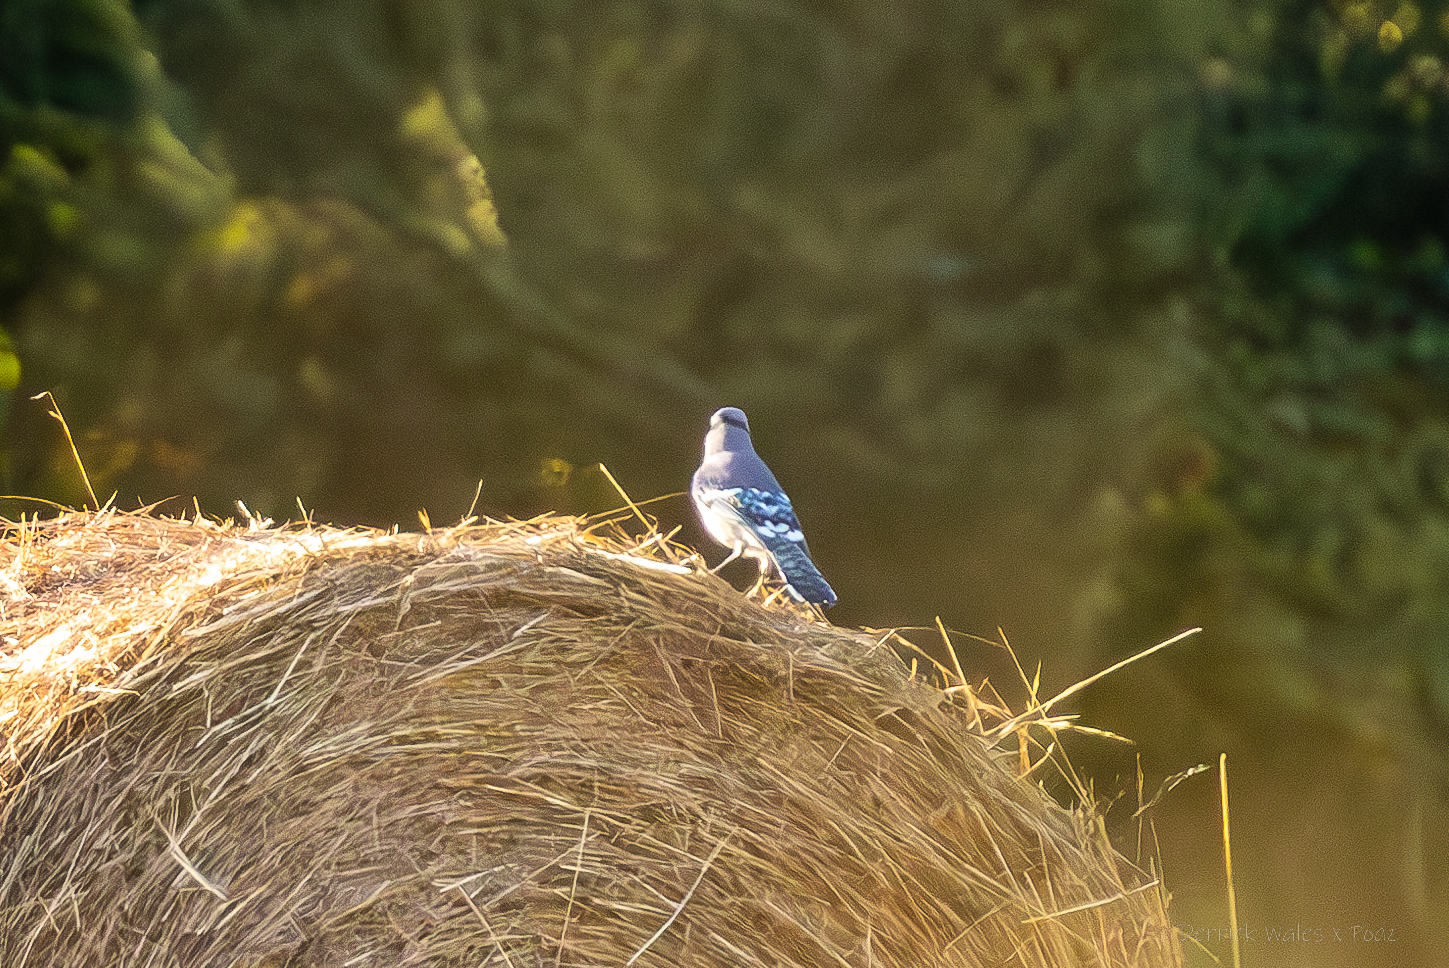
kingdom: Animalia
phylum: Chordata
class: Aves
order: Passeriformes
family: Corvidae
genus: Cyanocitta
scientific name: Cyanocitta cristata
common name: Blue jay
